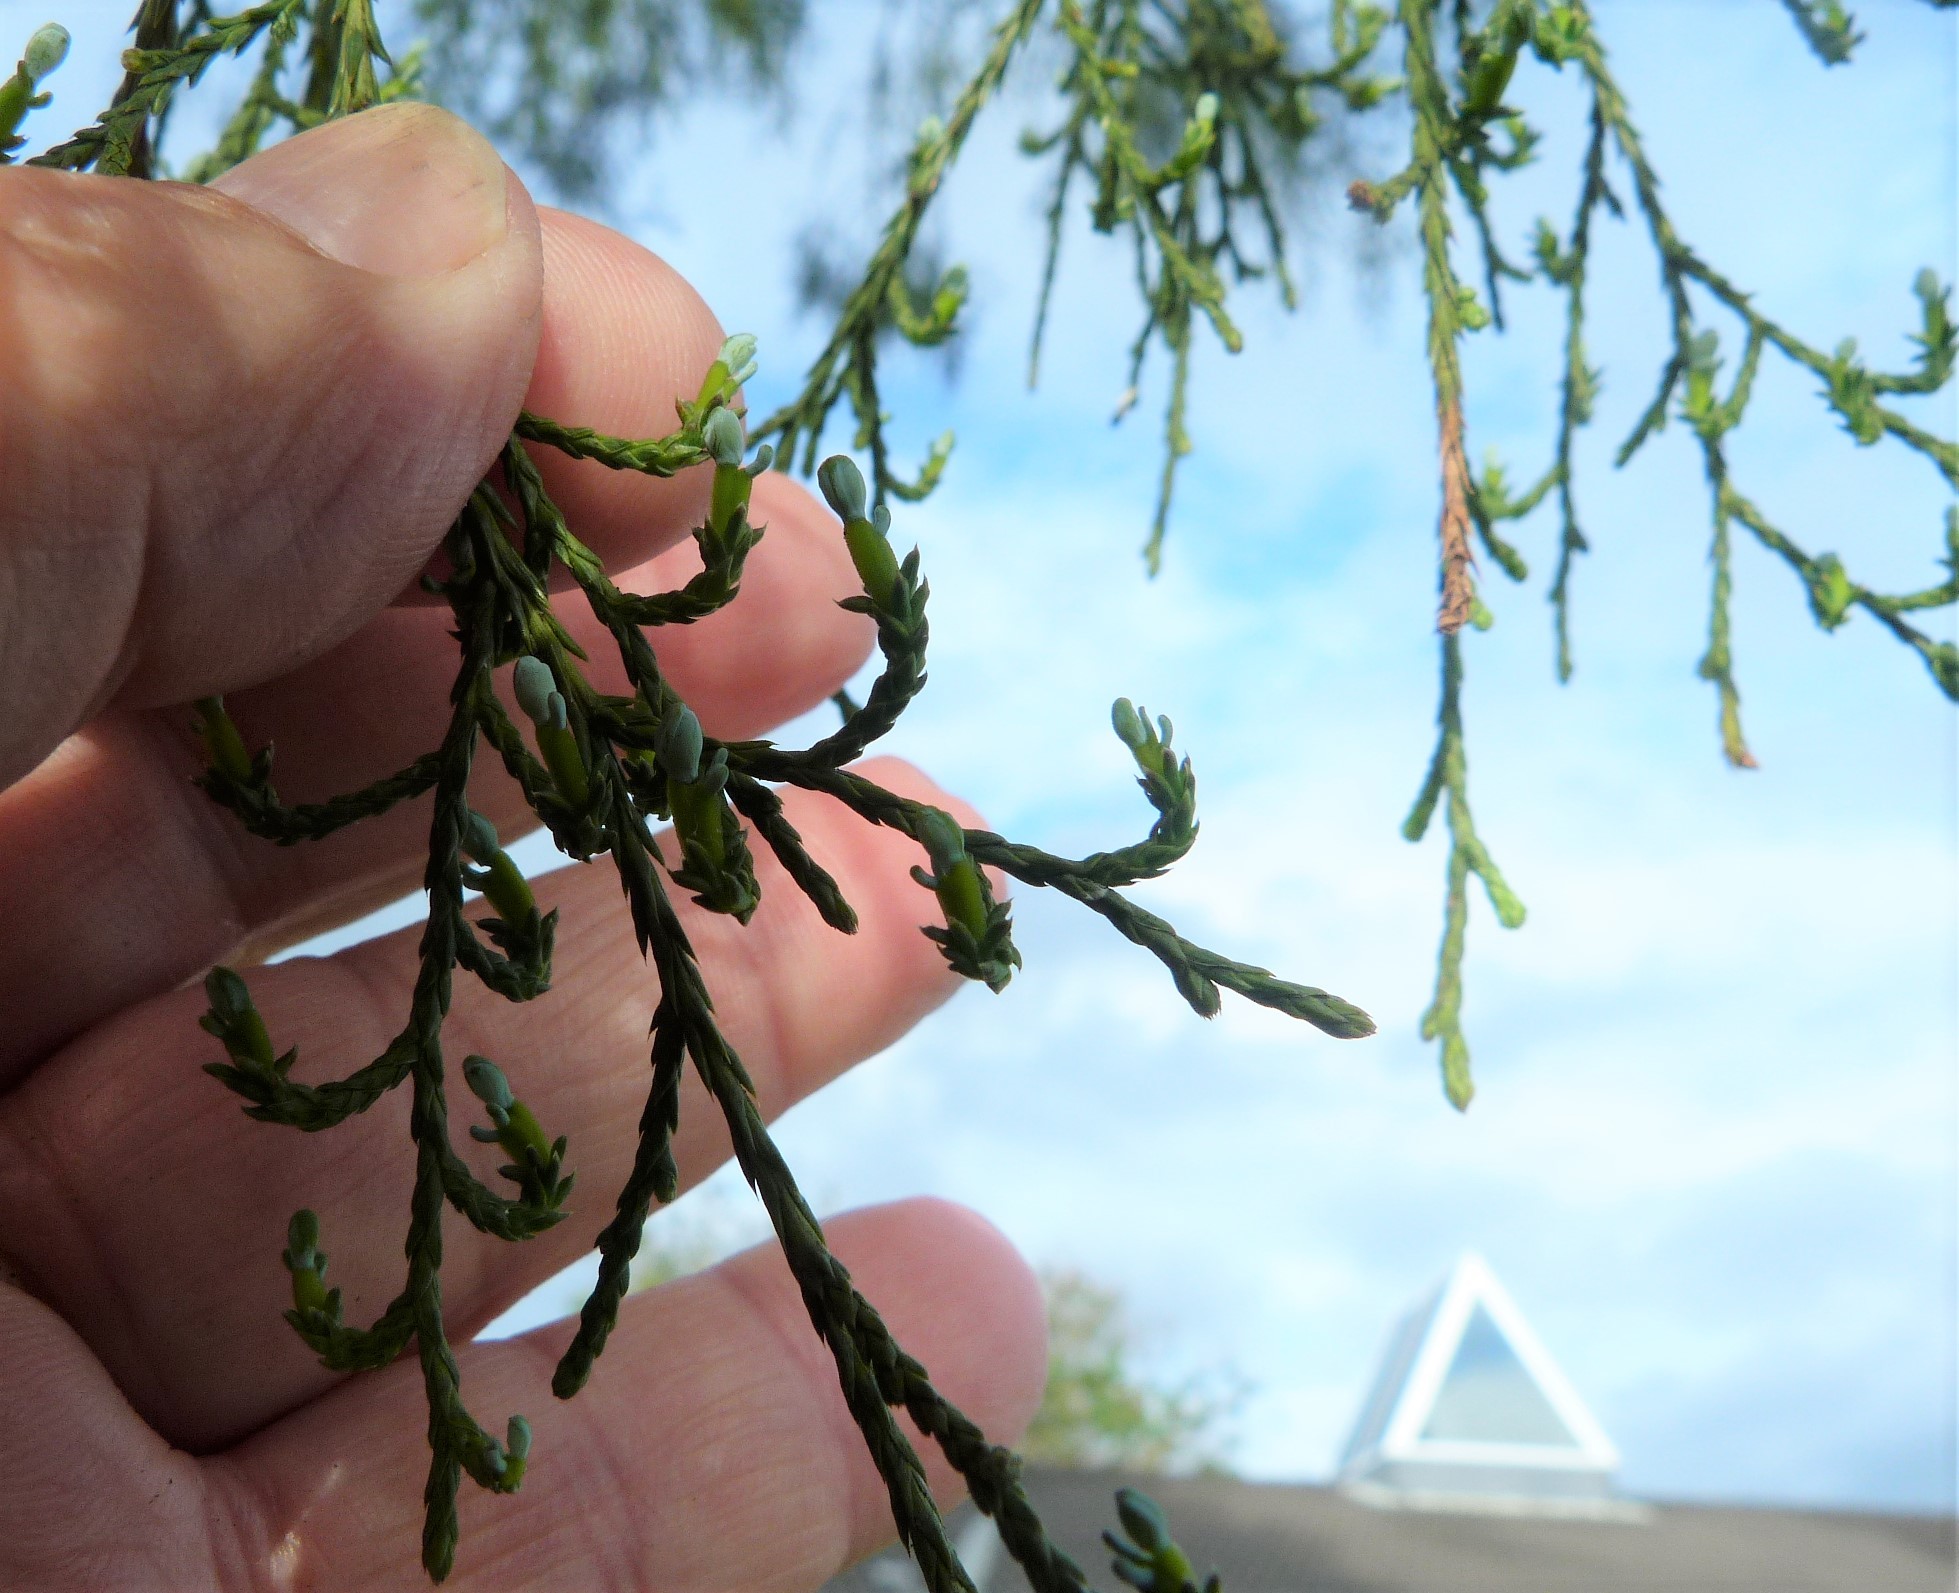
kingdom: Plantae
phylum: Tracheophyta
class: Pinopsida
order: Pinales
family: Podocarpaceae
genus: Dacrycarpus
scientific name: Dacrycarpus dacrydioides
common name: White pine
